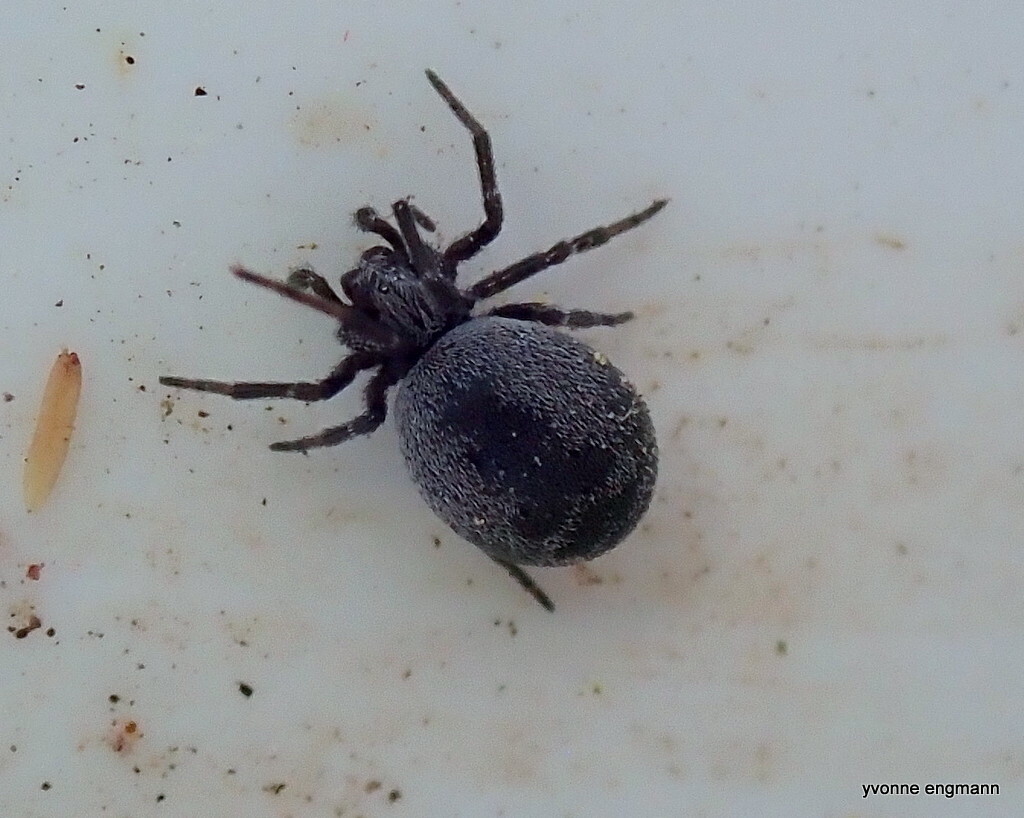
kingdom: Animalia
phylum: Arthropoda
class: Arachnida
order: Araneae
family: Dictynidae
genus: Brigittea
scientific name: Brigittea latens
